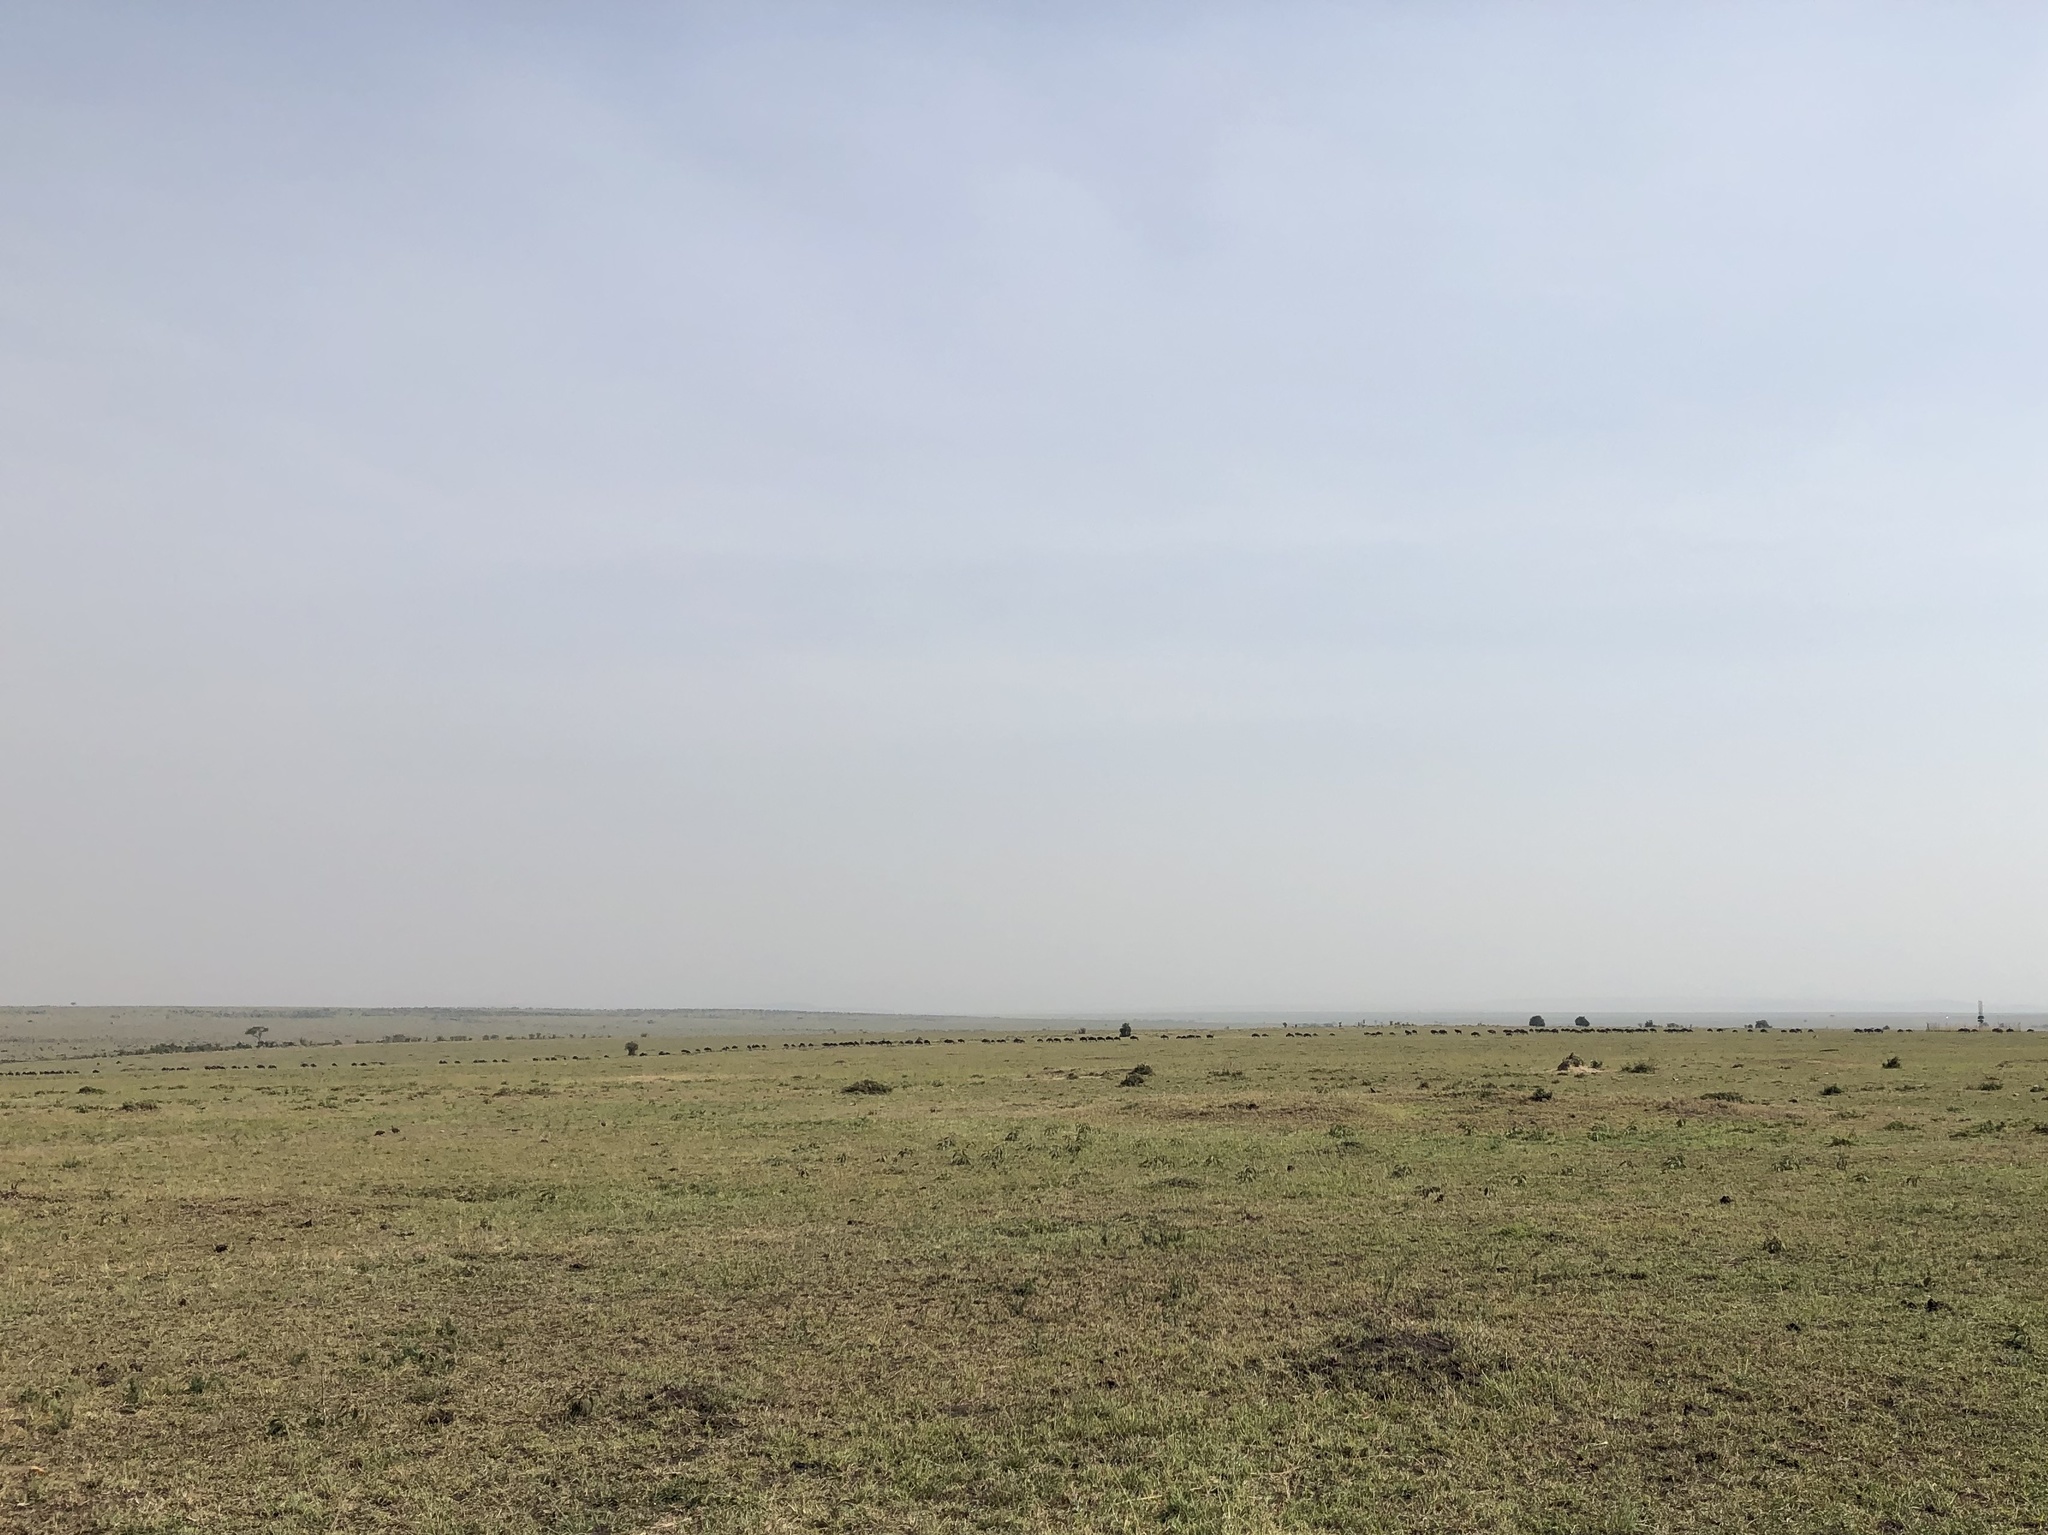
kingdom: Animalia
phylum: Chordata
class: Mammalia
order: Artiodactyla
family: Bovidae
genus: Connochaetes
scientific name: Connochaetes taurinus
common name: Blue wildebeest
